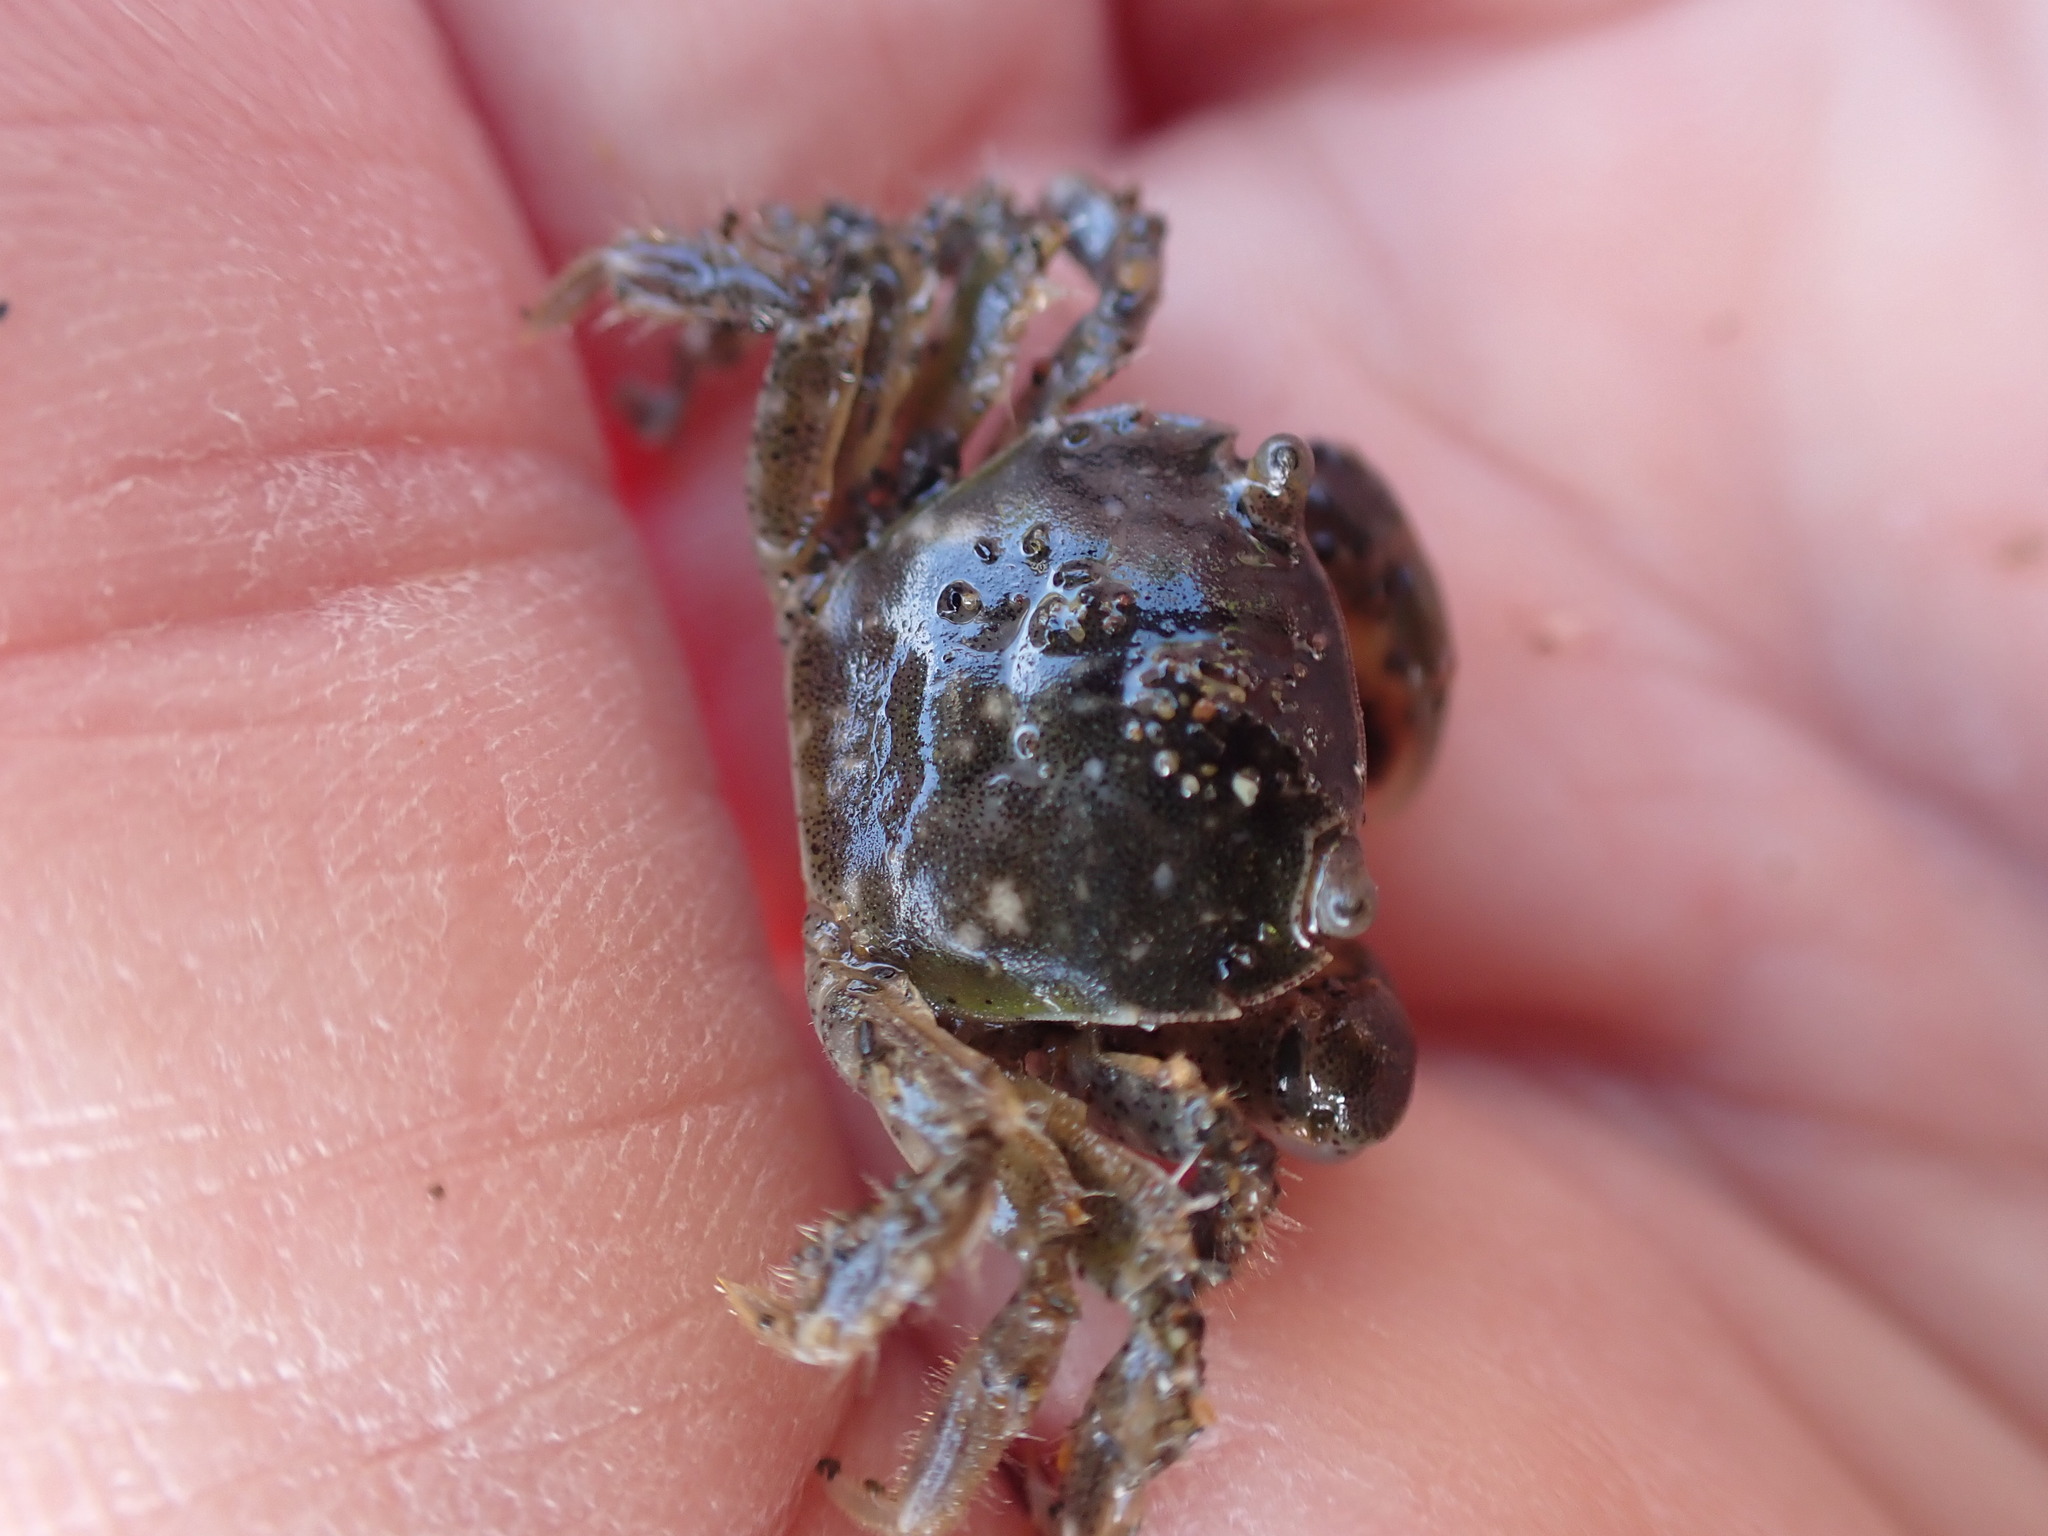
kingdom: Animalia
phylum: Arthropoda
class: Malacostraca
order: Decapoda
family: Varunidae
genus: Hemigrapsus
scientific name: Hemigrapsus crenulatus
